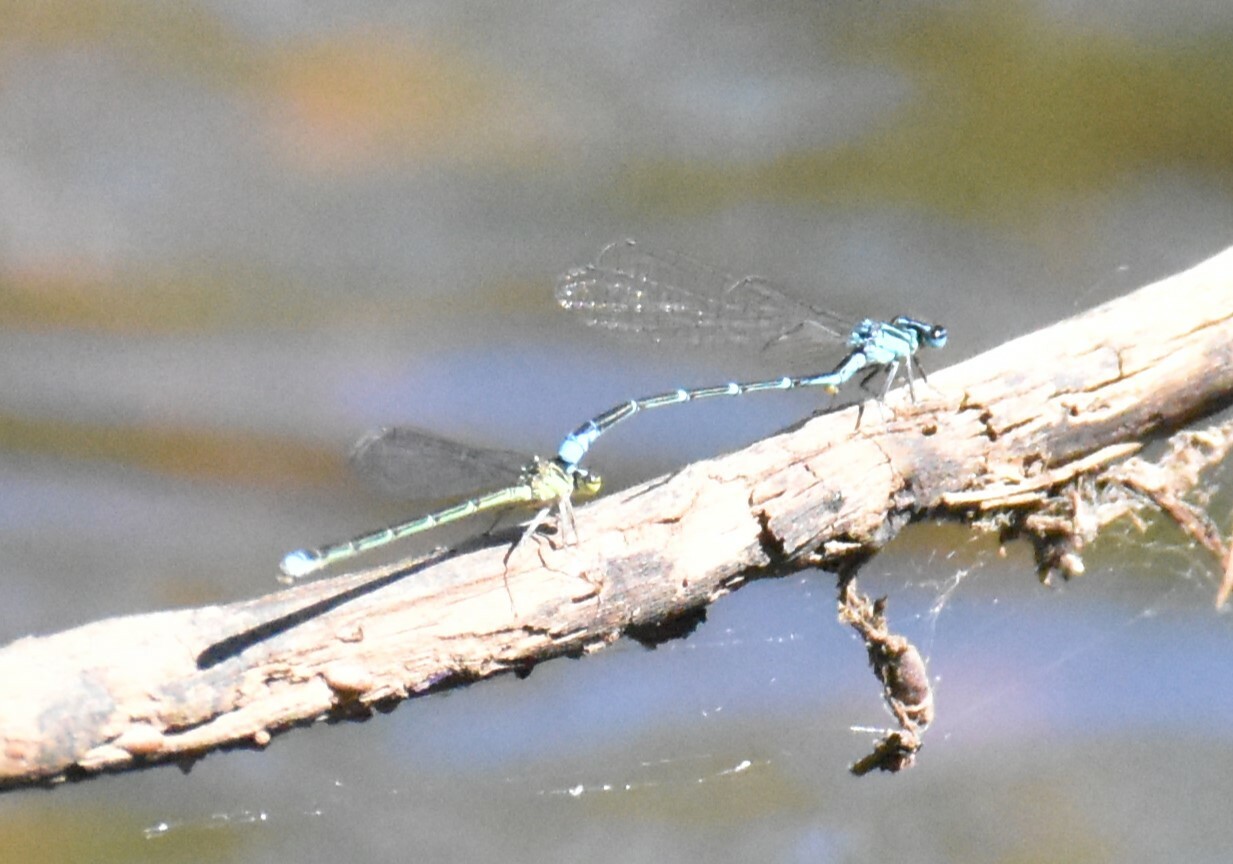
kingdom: Animalia
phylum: Arthropoda
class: Insecta
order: Odonata
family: Coenagrionidae
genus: Enallagma
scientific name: Enallagma exsulans
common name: Stream bluet
